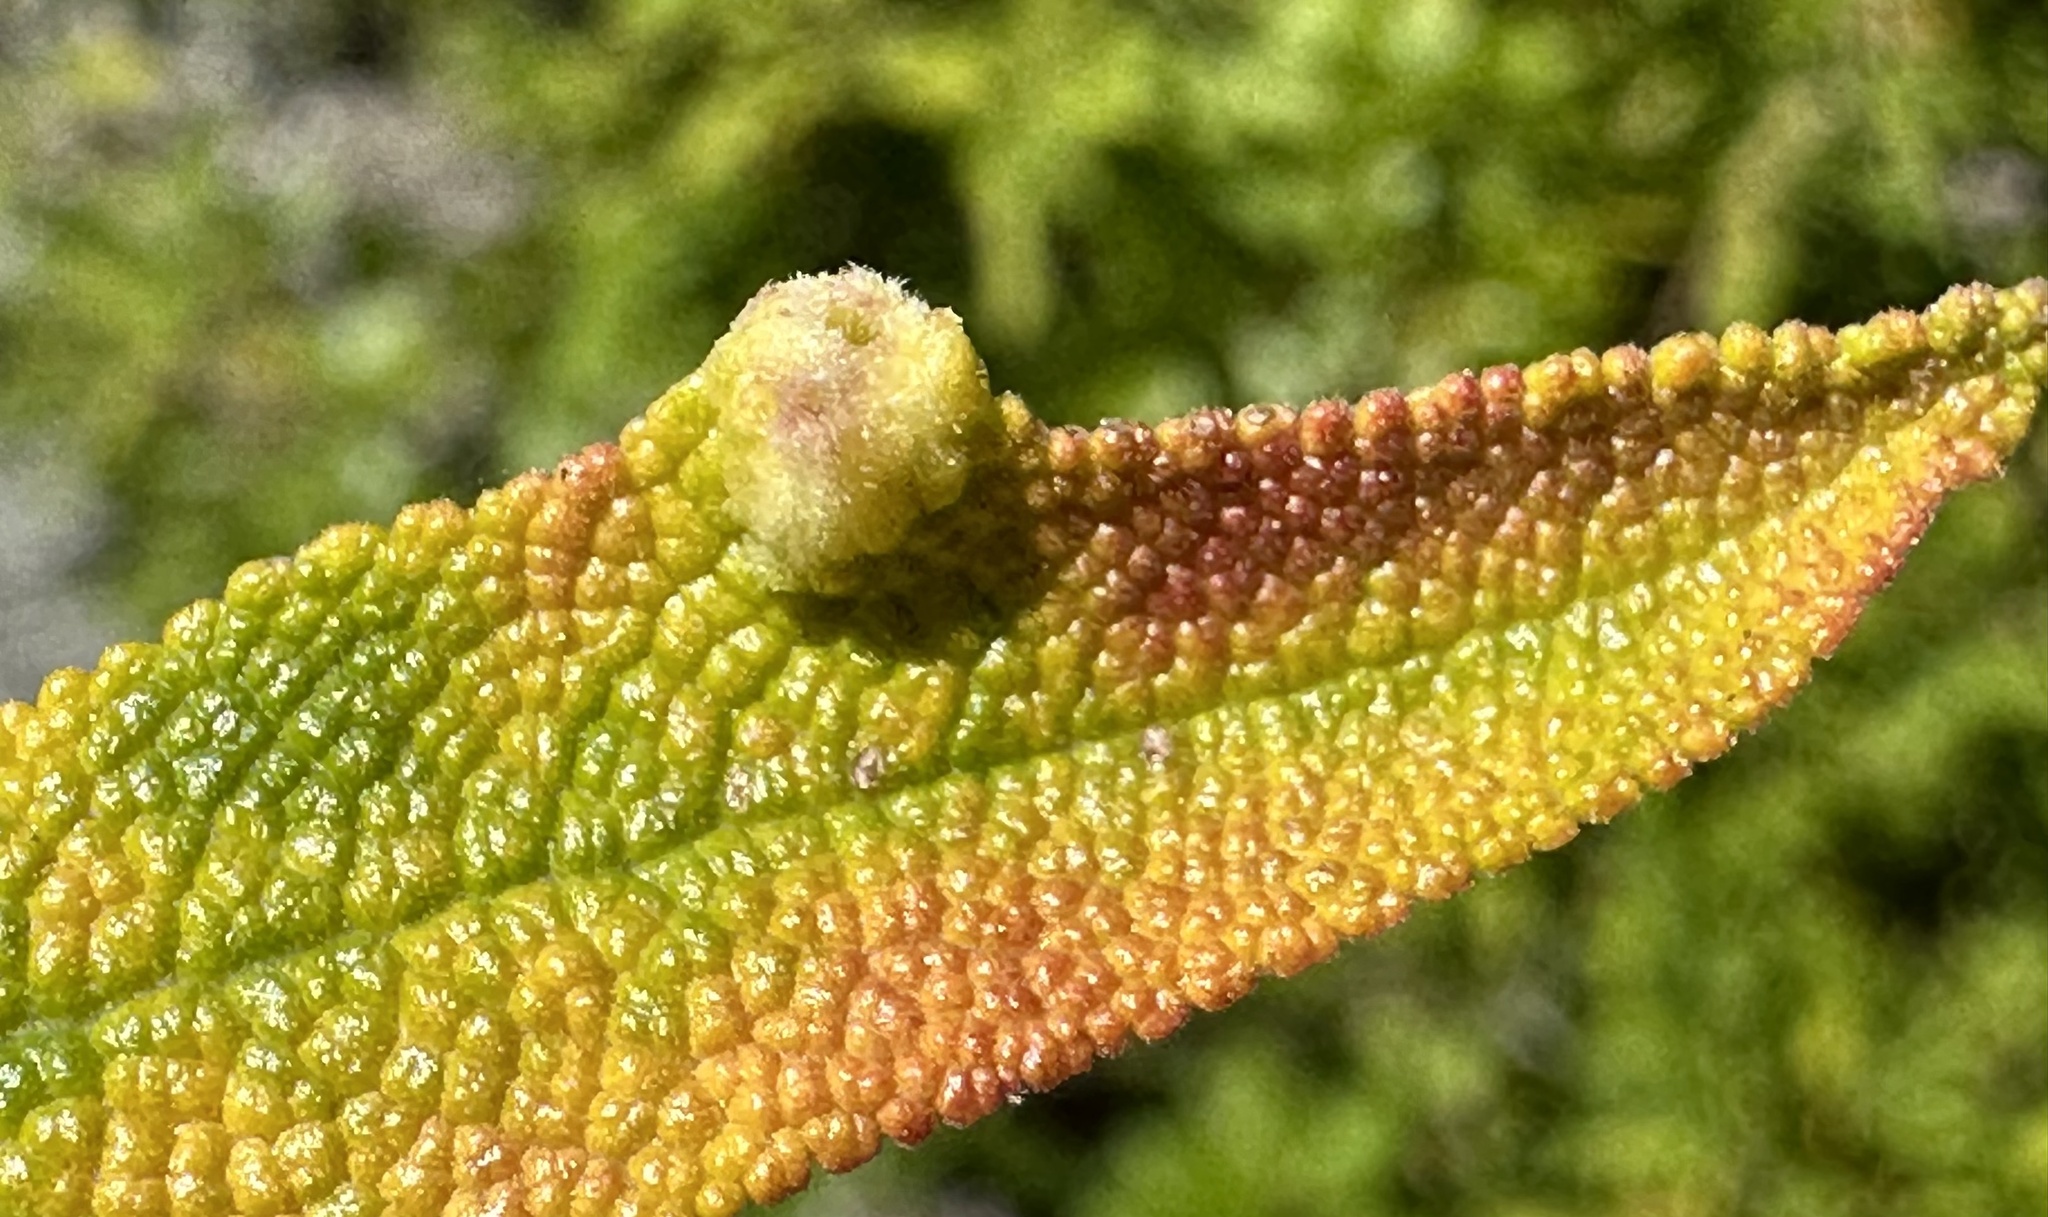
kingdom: Animalia
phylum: Arthropoda
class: Insecta
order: Diptera
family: Cecidomyiidae
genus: Rhopalomyia
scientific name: Rhopalomyia audibertiae
